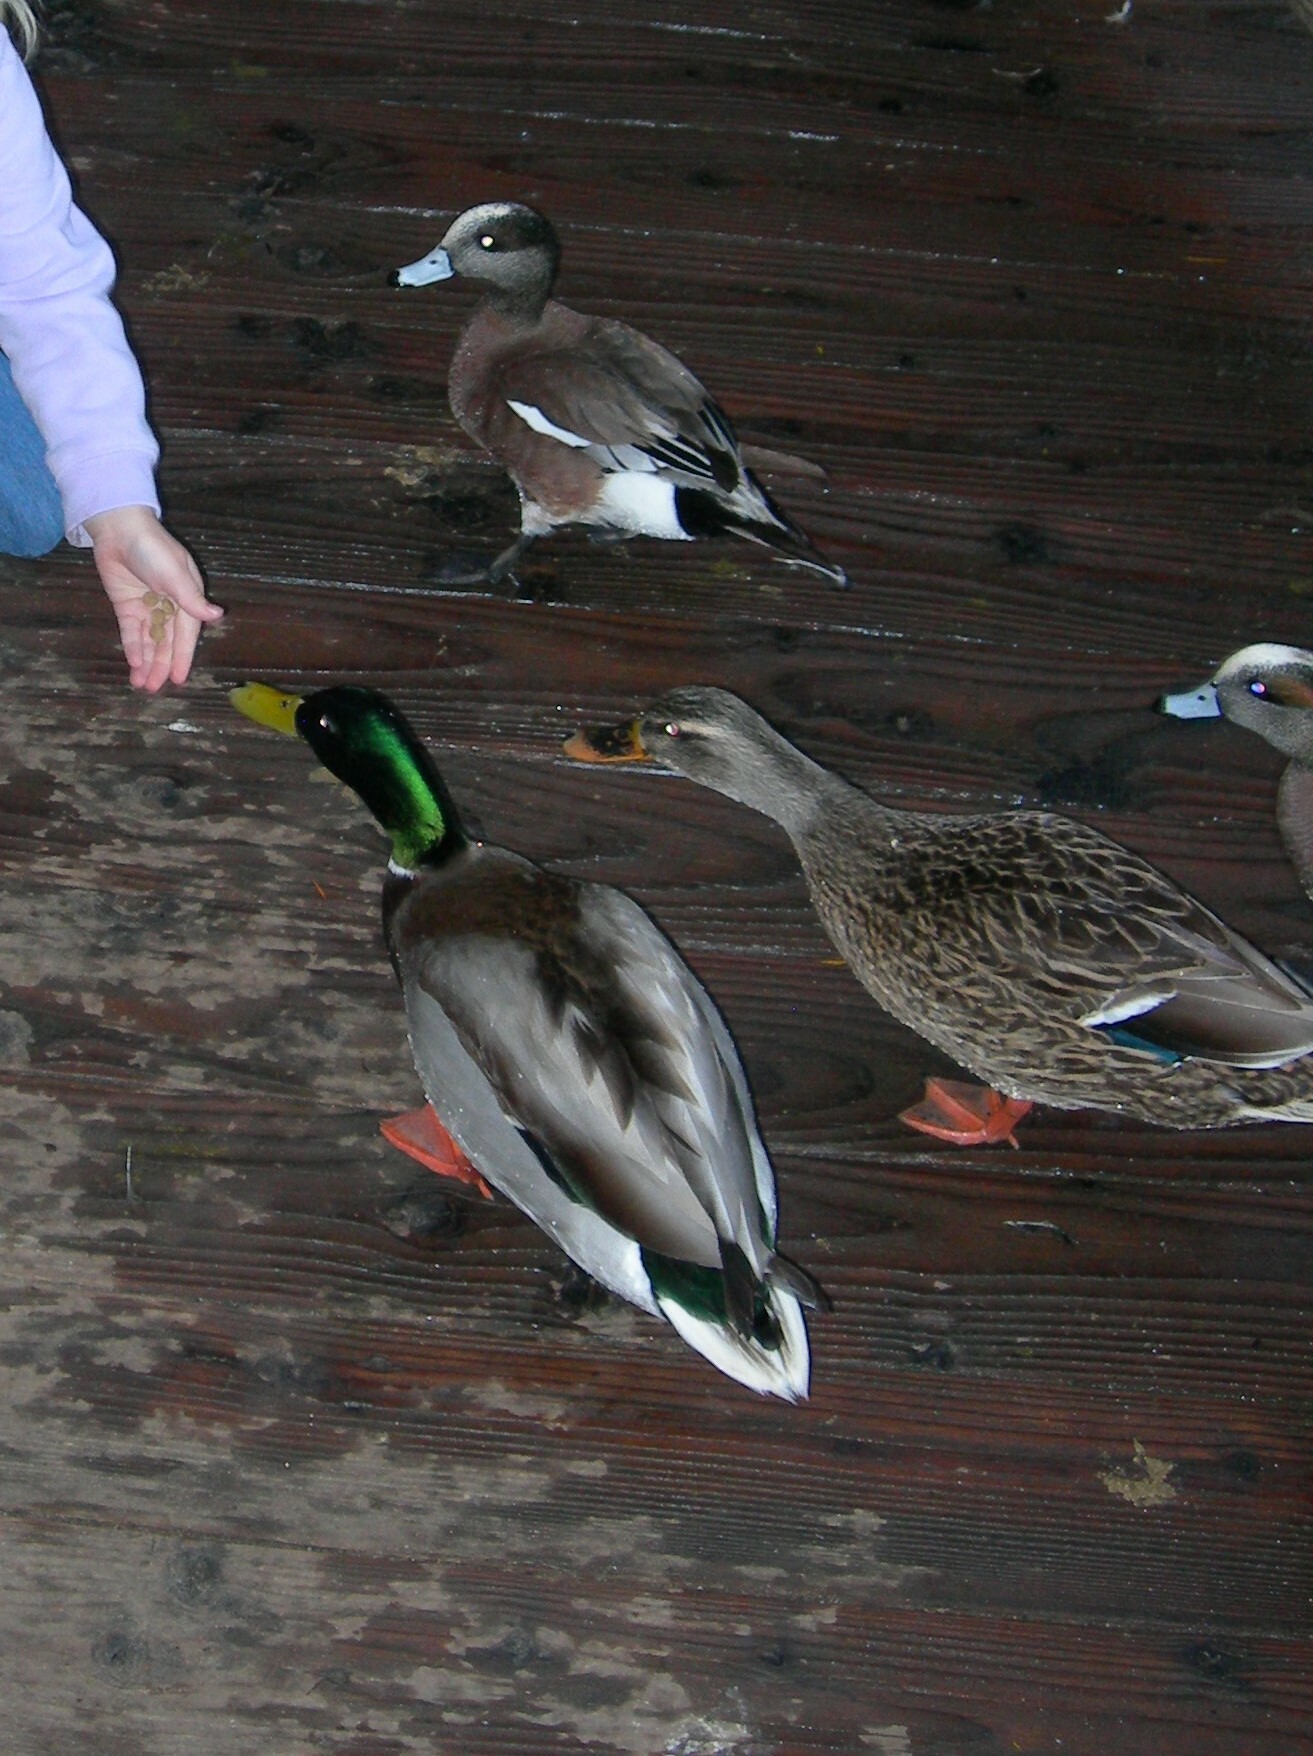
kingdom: Animalia
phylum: Chordata
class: Aves
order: Anseriformes
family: Anatidae
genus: Anas
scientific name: Anas platyrhynchos
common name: Mallard
